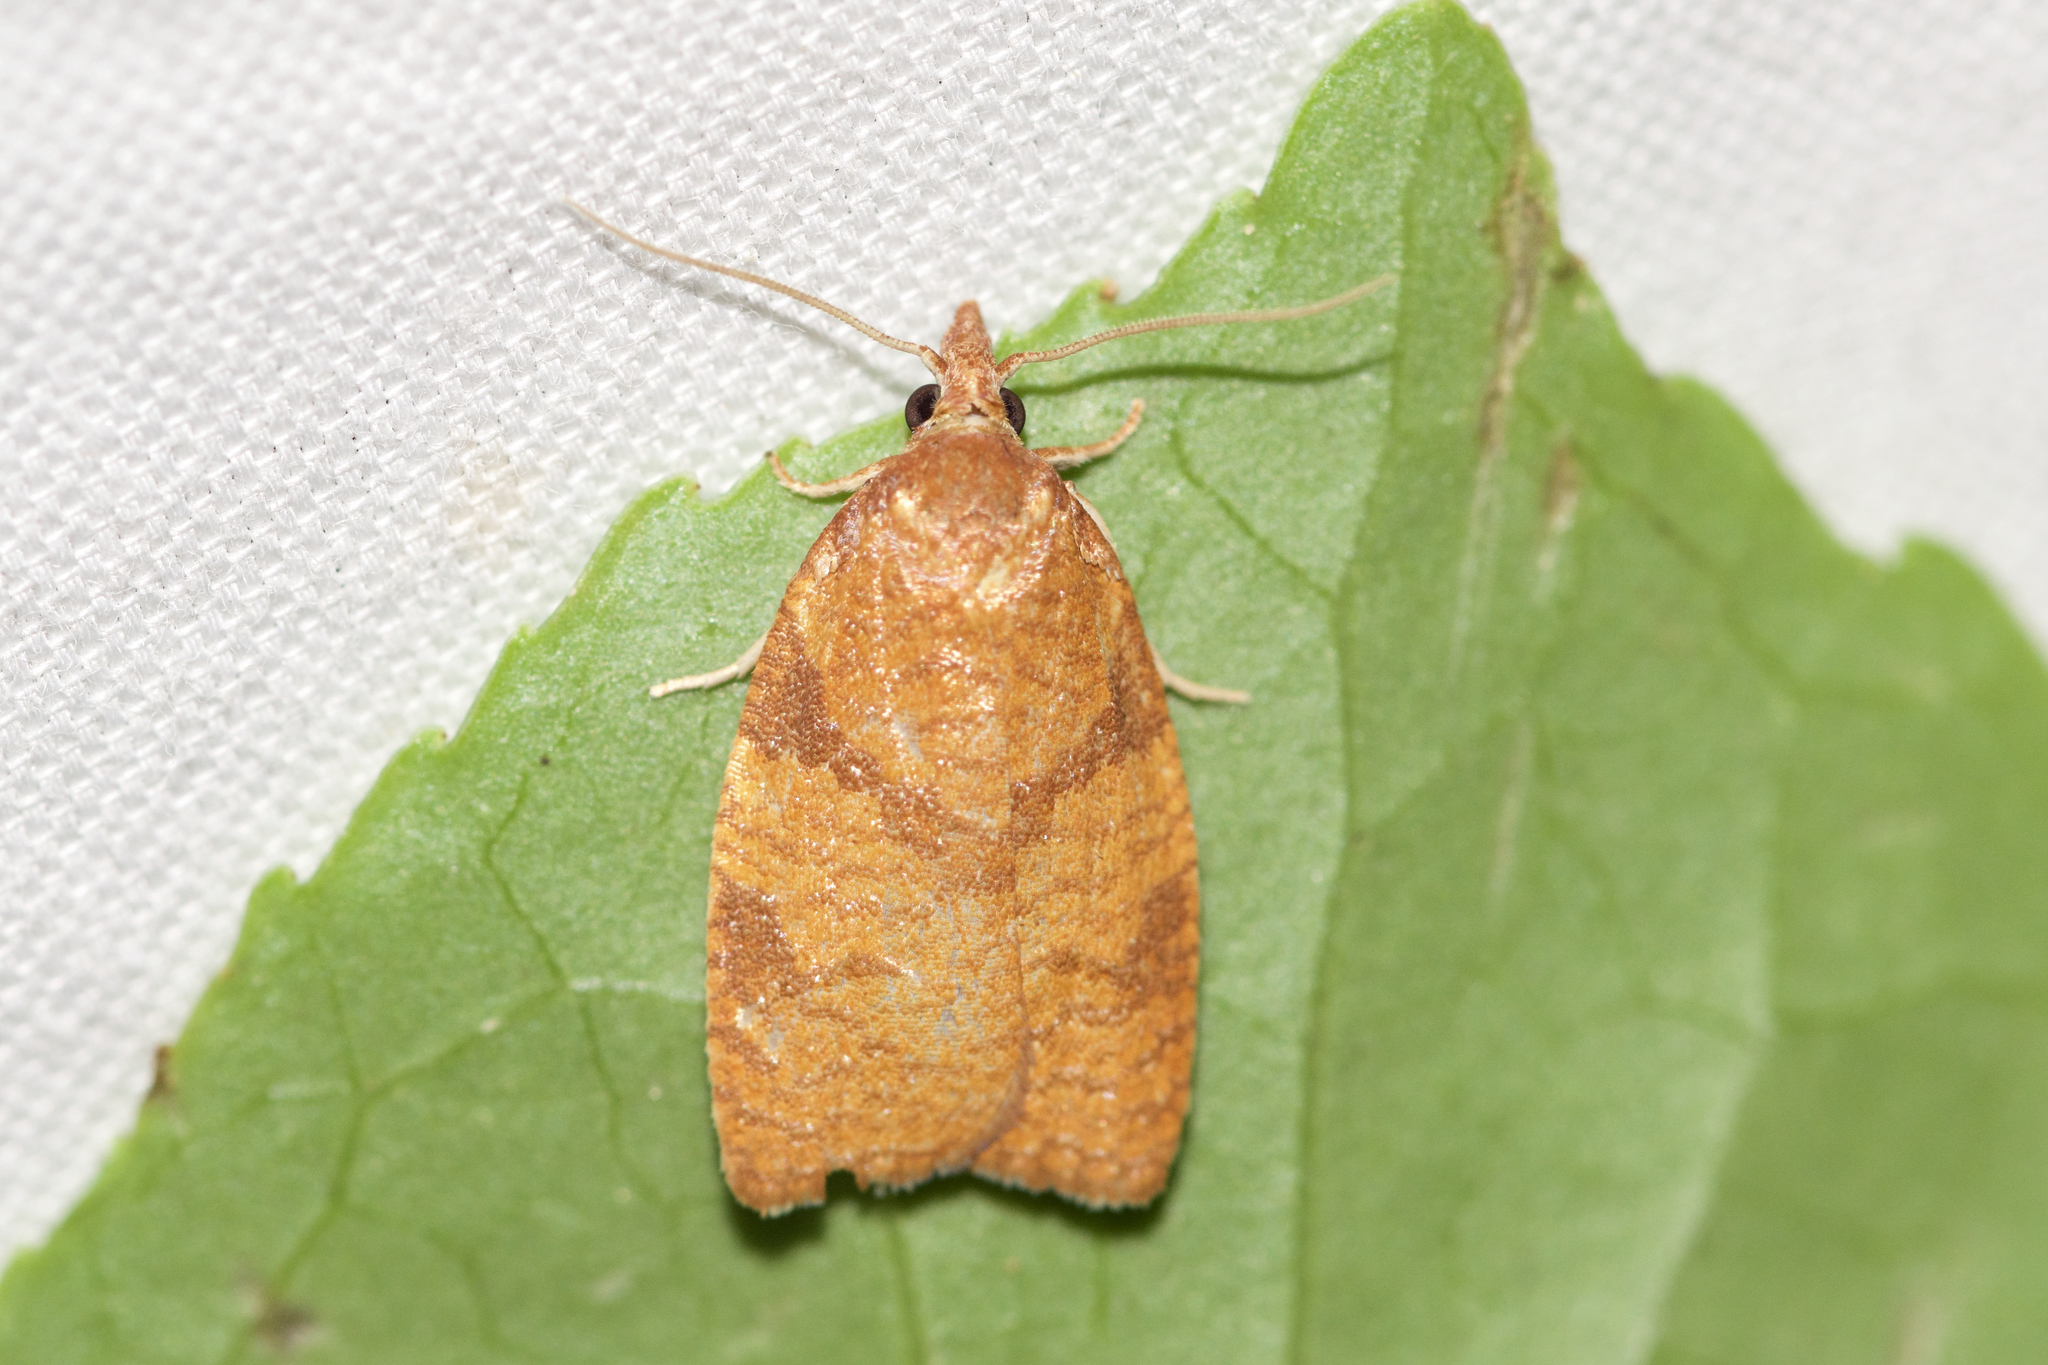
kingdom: Animalia
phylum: Arthropoda
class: Insecta
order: Lepidoptera
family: Tortricidae
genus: Cenopis
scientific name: Cenopis directana
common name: Chokecherry leafroller moth
